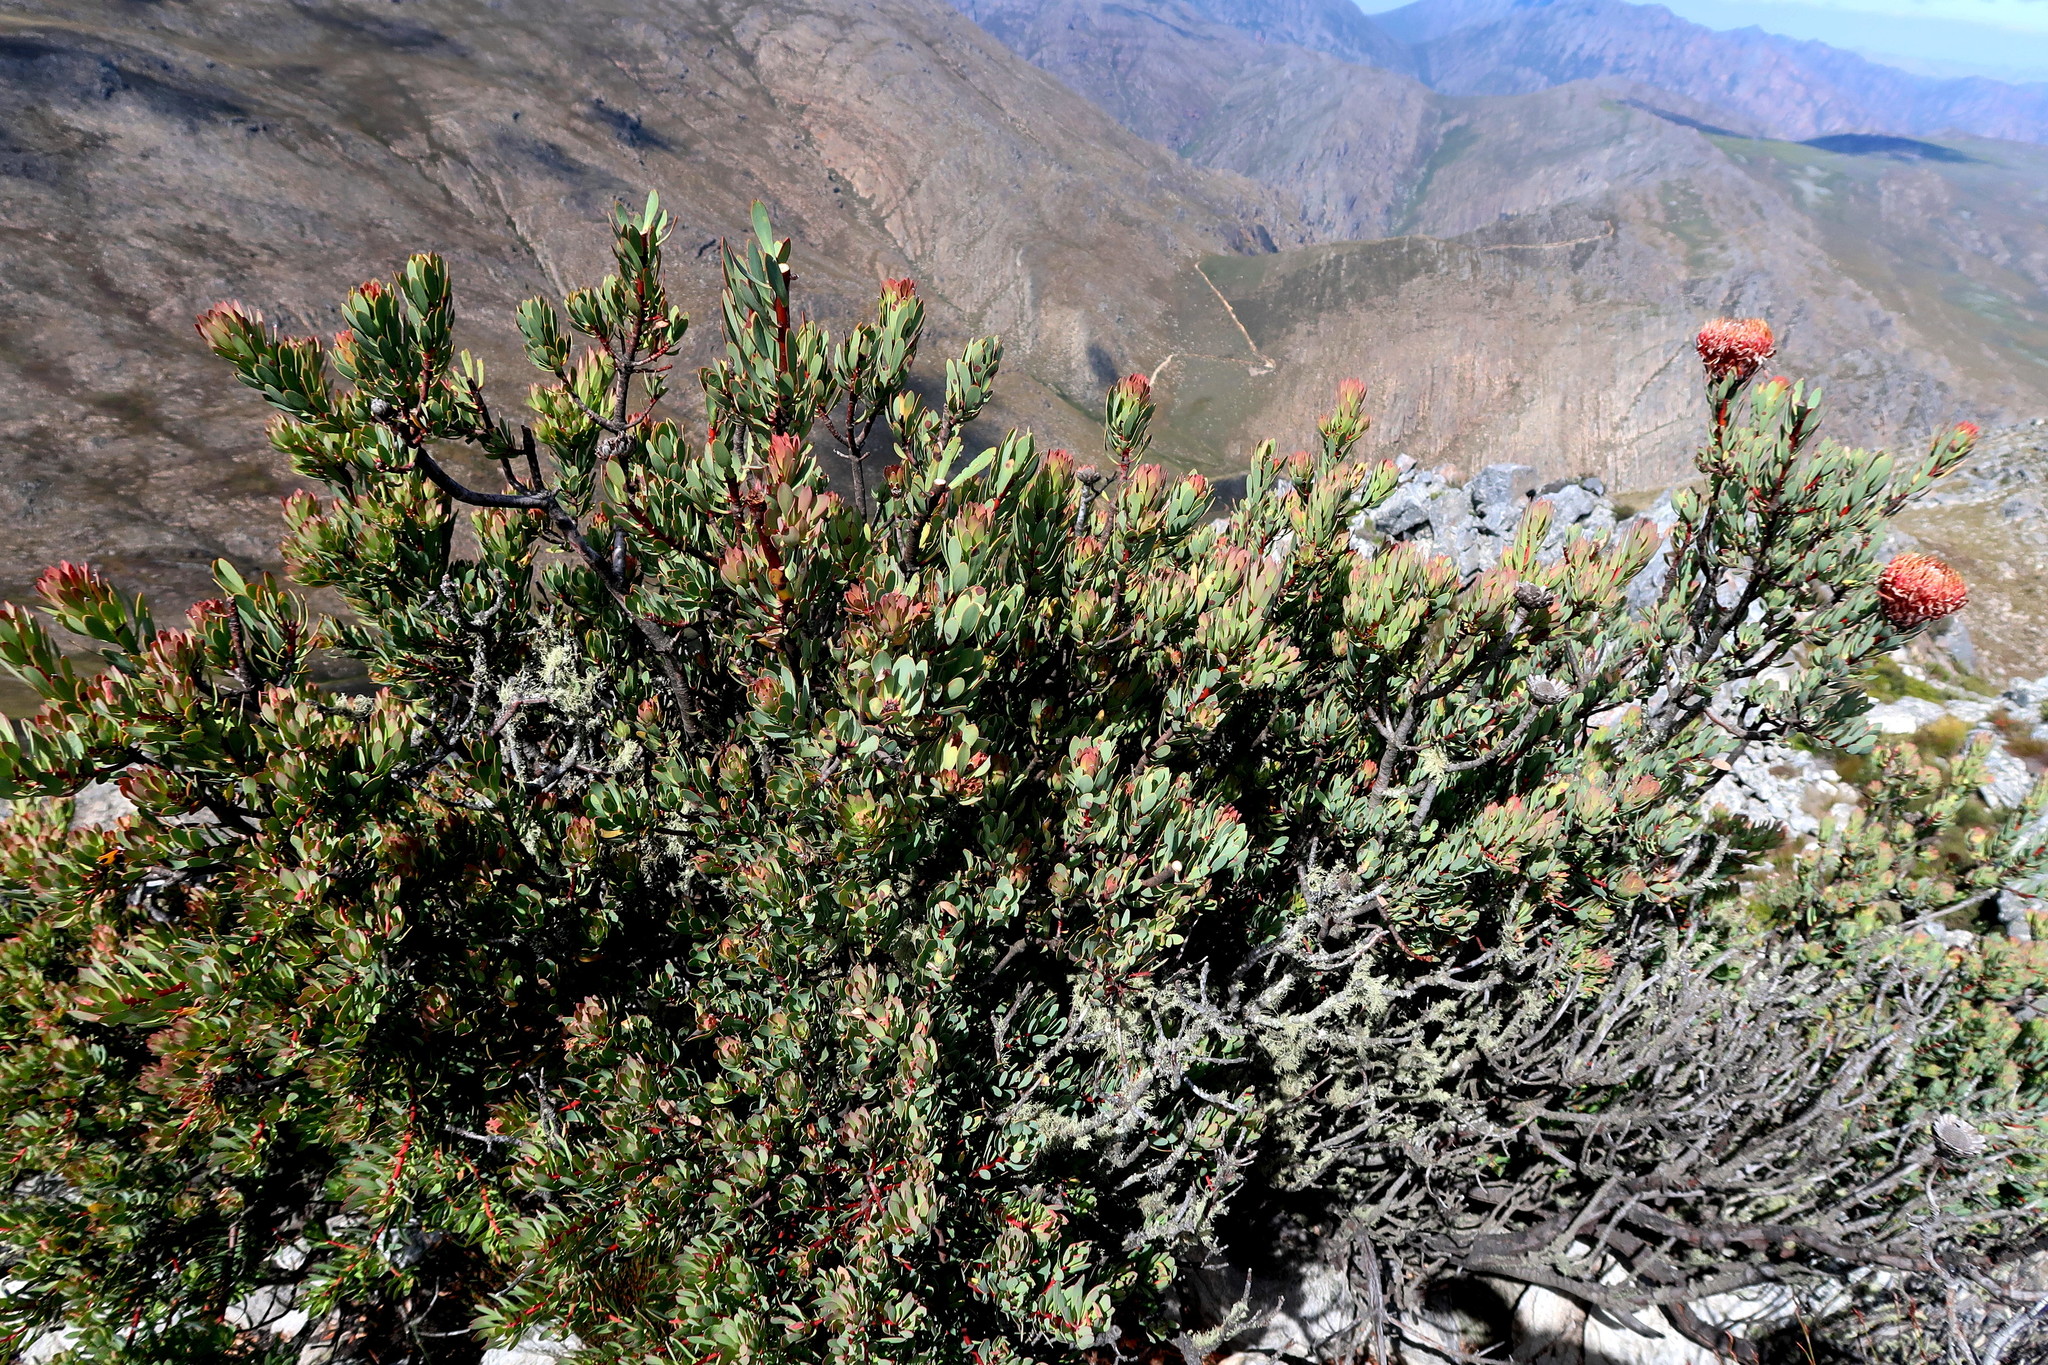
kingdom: Plantae
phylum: Tracheophyta
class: Magnoliopsida
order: Proteales
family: Proteaceae
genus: Protea
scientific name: Protea rupicola
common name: Krantz protea
